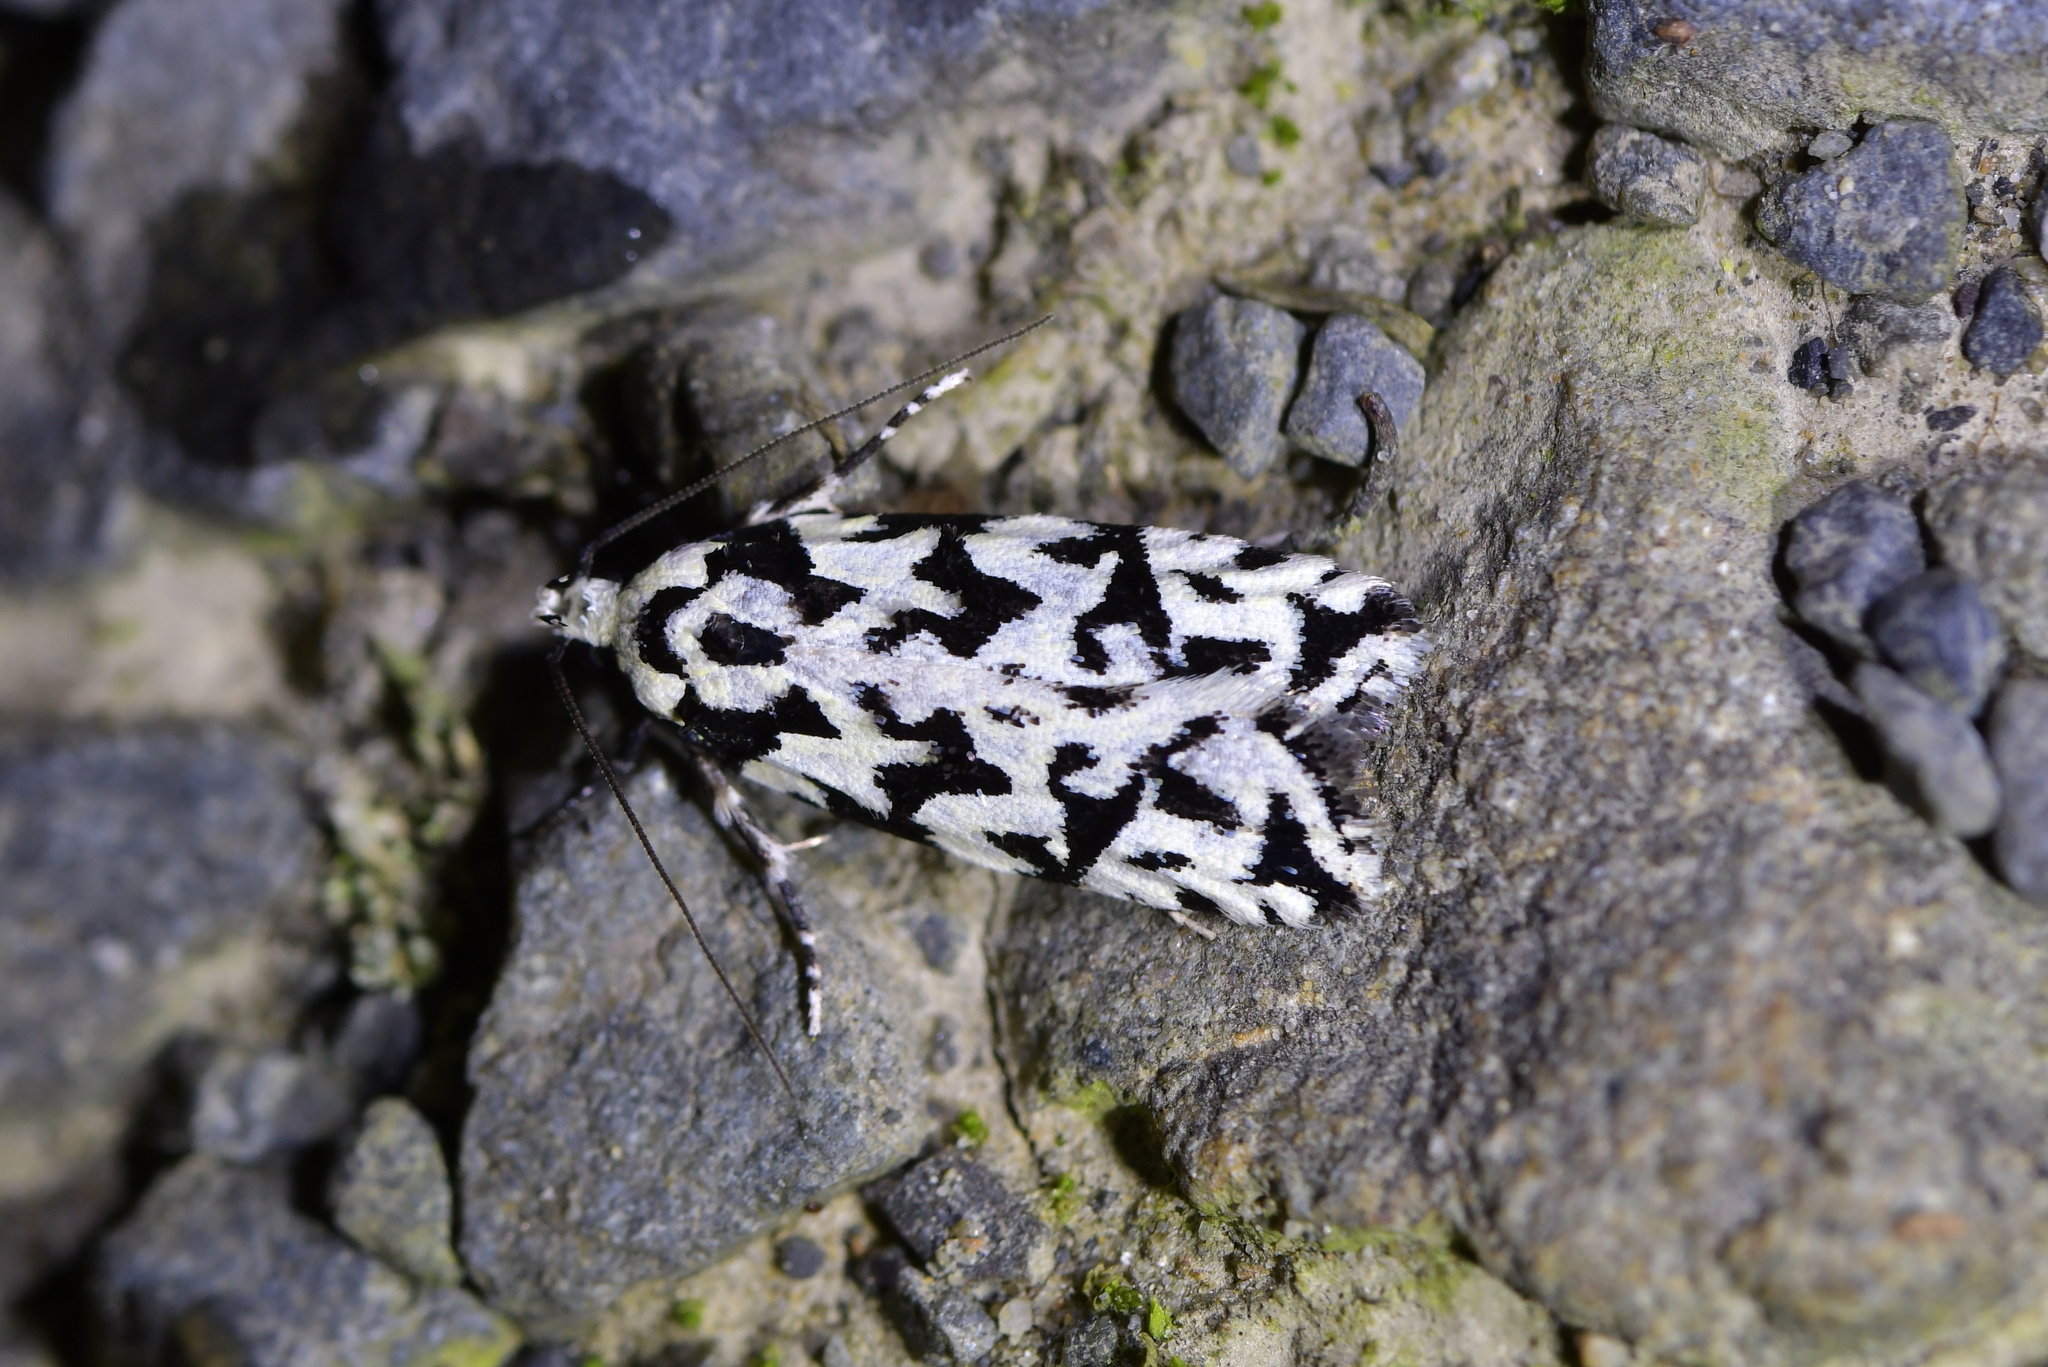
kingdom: Animalia
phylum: Arthropoda
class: Insecta
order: Lepidoptera
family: Oecophoridae
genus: Izatha
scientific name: Izatha
